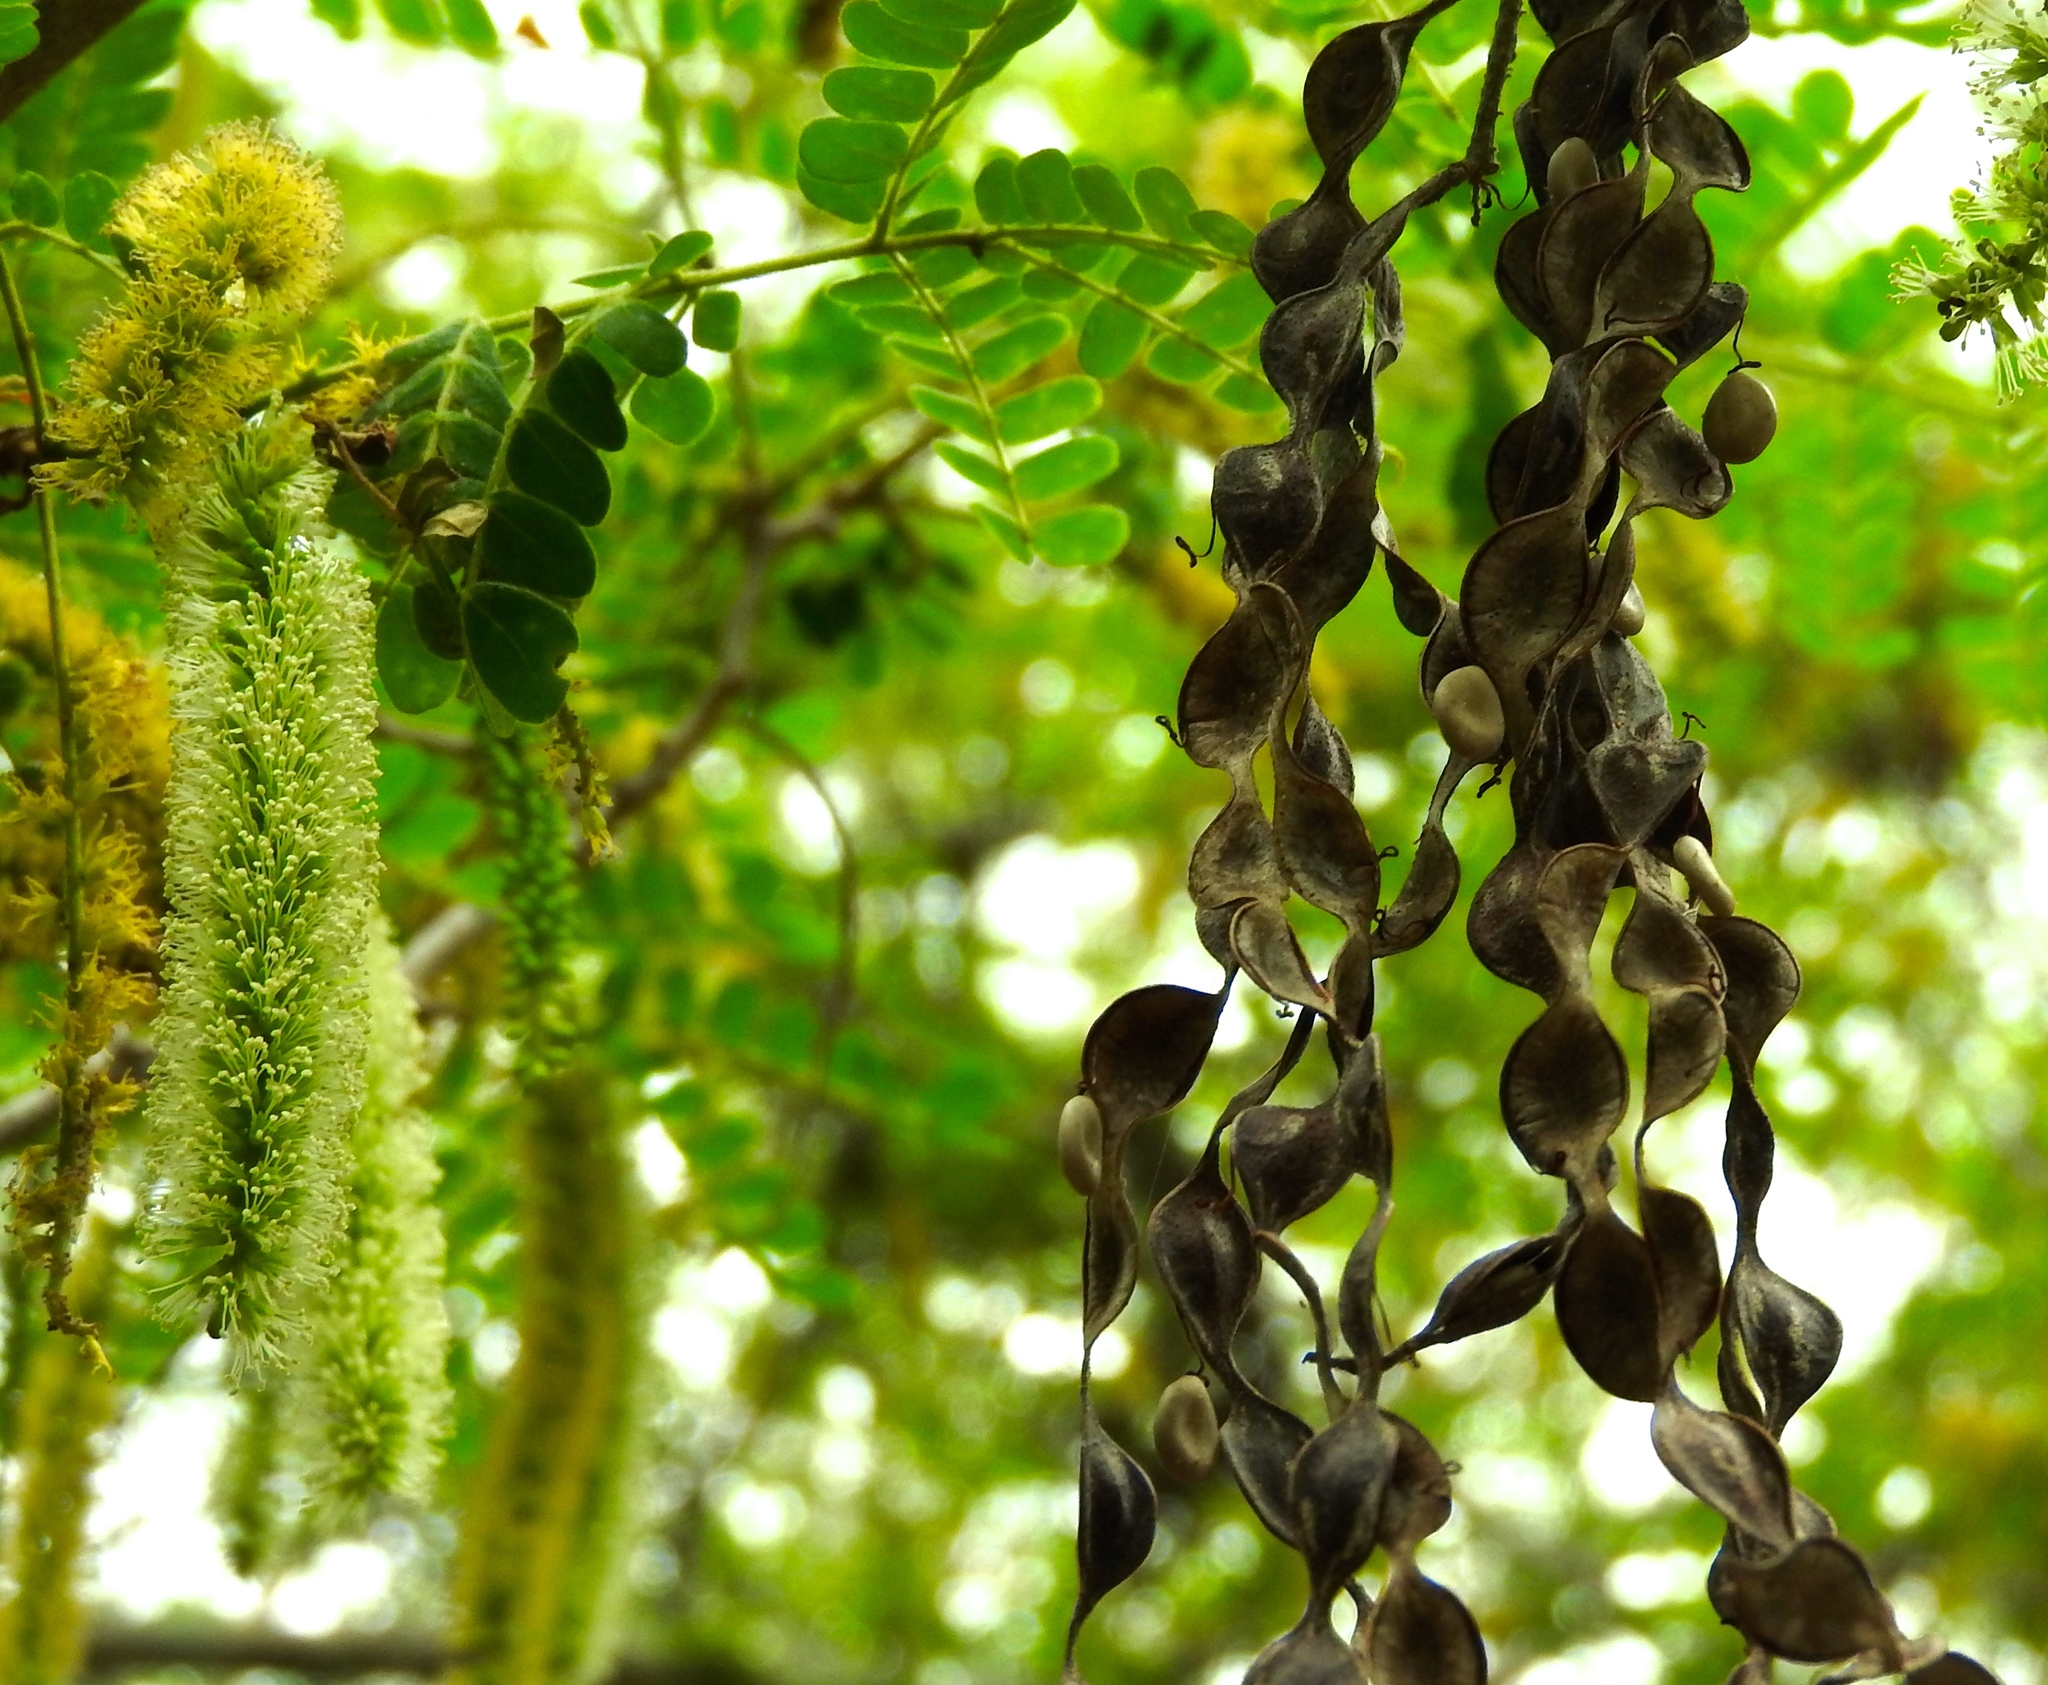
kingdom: Plantae
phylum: Tracheophyta
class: Magnoliopsida
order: Fabales
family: Fabaceae
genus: Pityrocarpa
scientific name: Pityrocarpa obliqua
